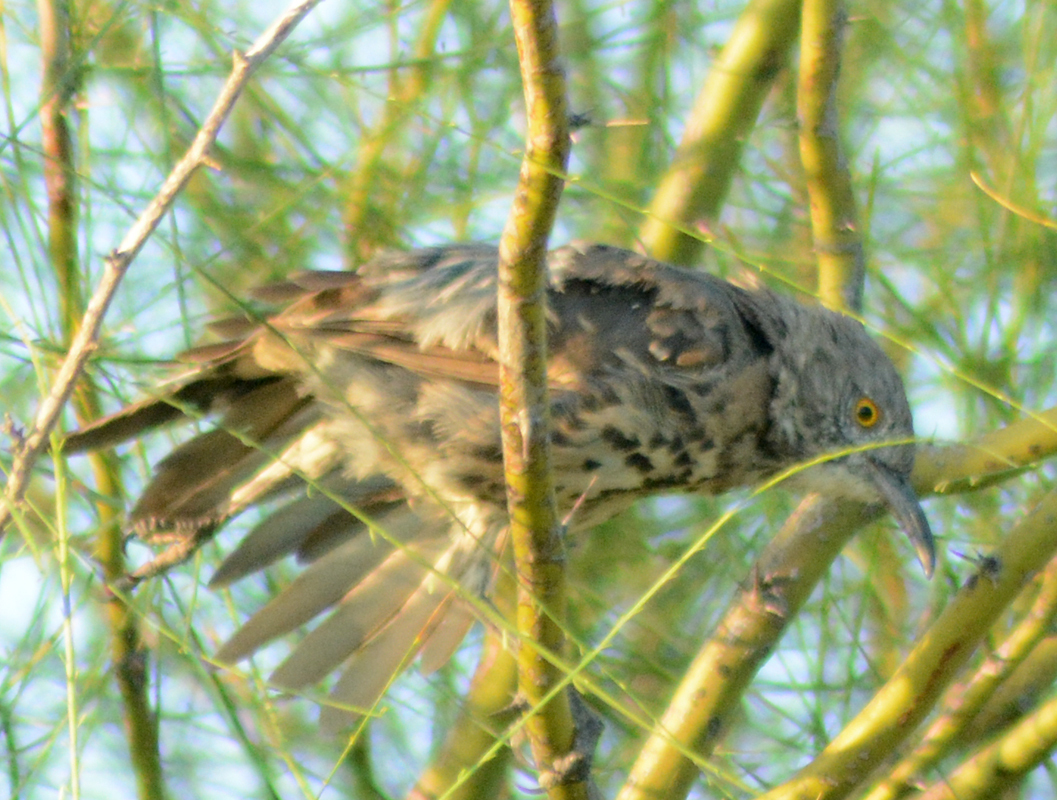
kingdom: Animalia
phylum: Chordata
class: Aves
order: Passeriformes
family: Mimidae
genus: Toxostoma
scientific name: Toxostoma cinereum
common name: Gray thrasher
